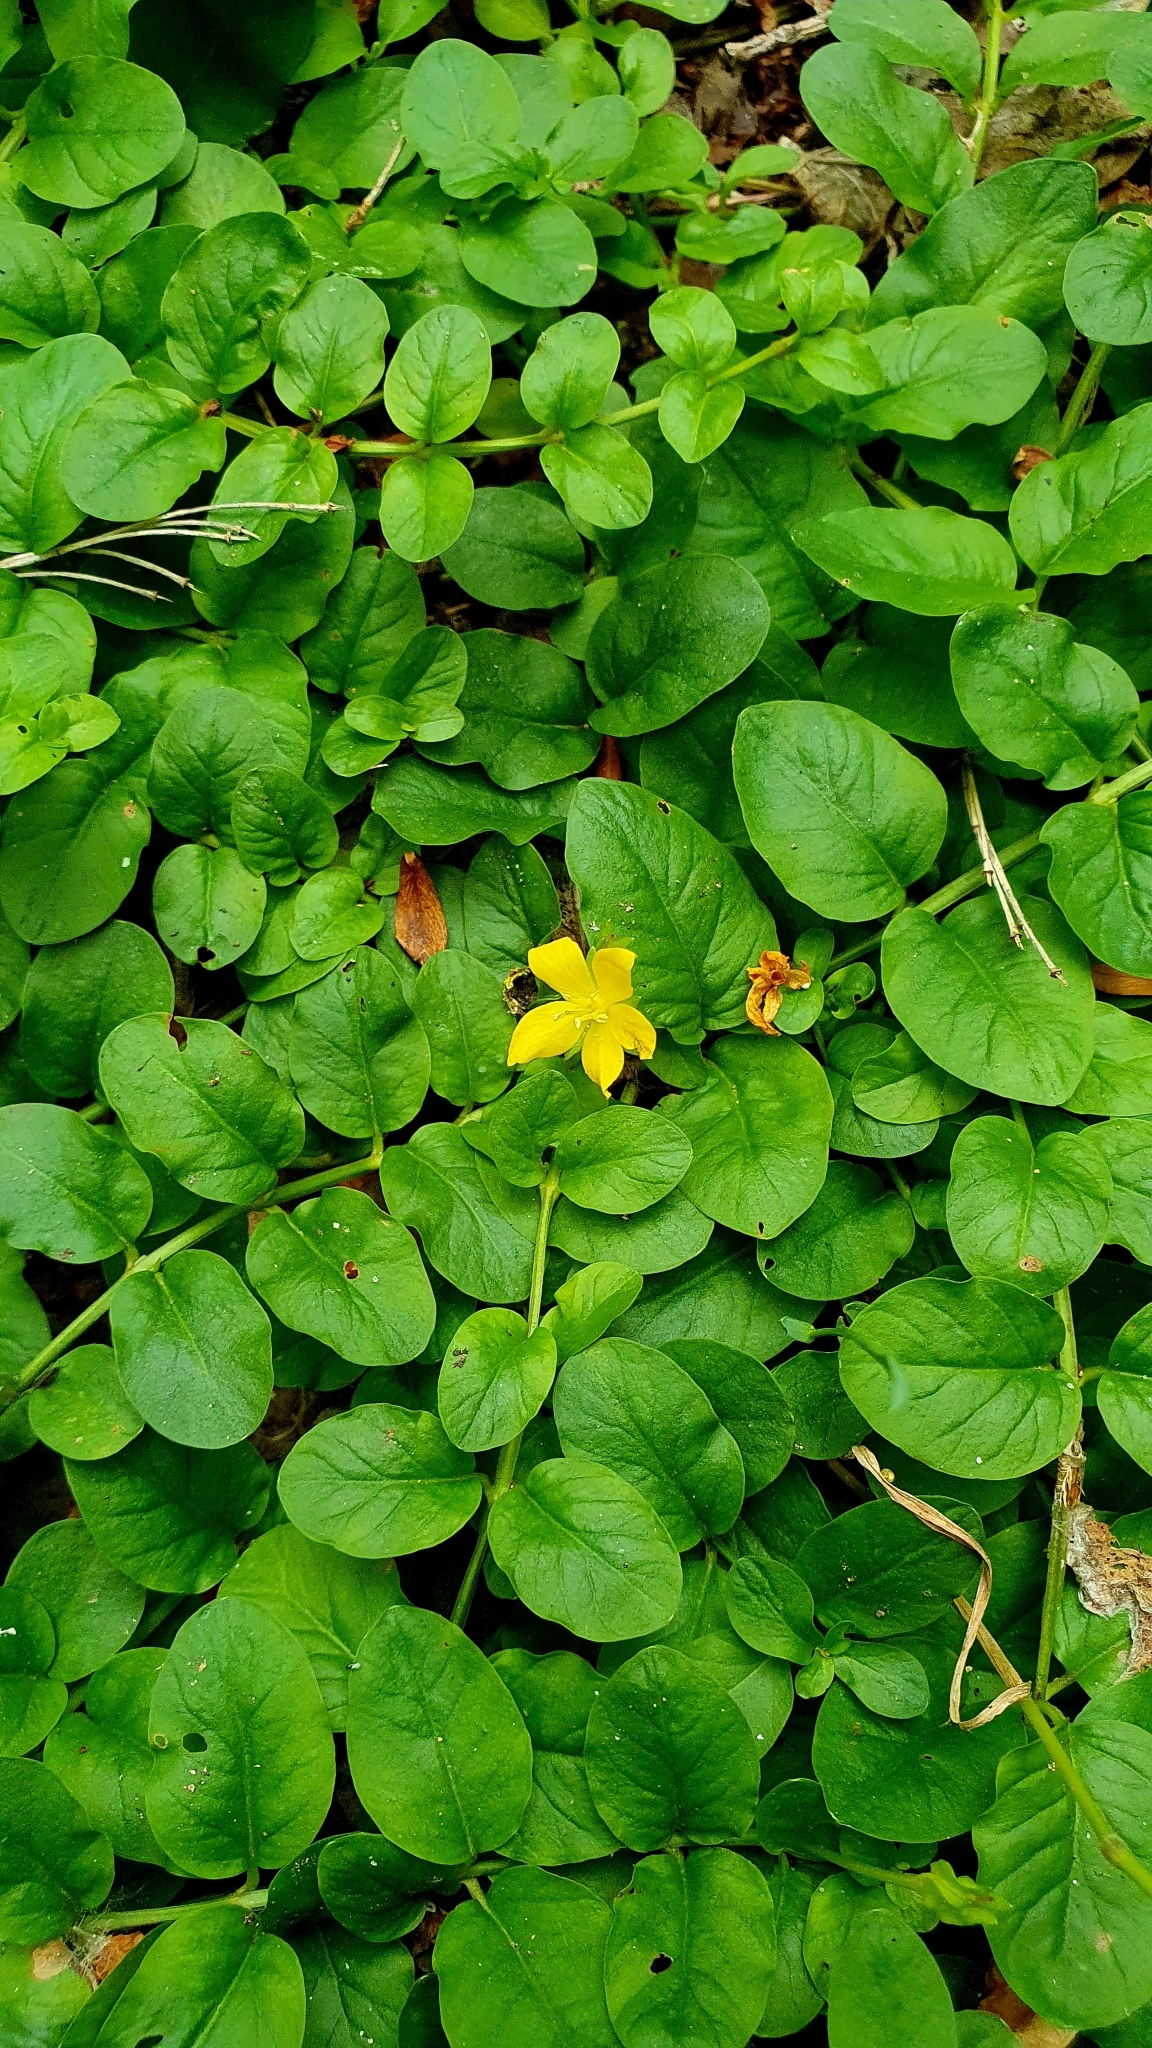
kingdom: Plantae
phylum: Tracheophyta
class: Magnoliopsida
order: Ericales
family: Primulaceae
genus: Lysimachia
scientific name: Lysimachia nummularia
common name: Moneywort
